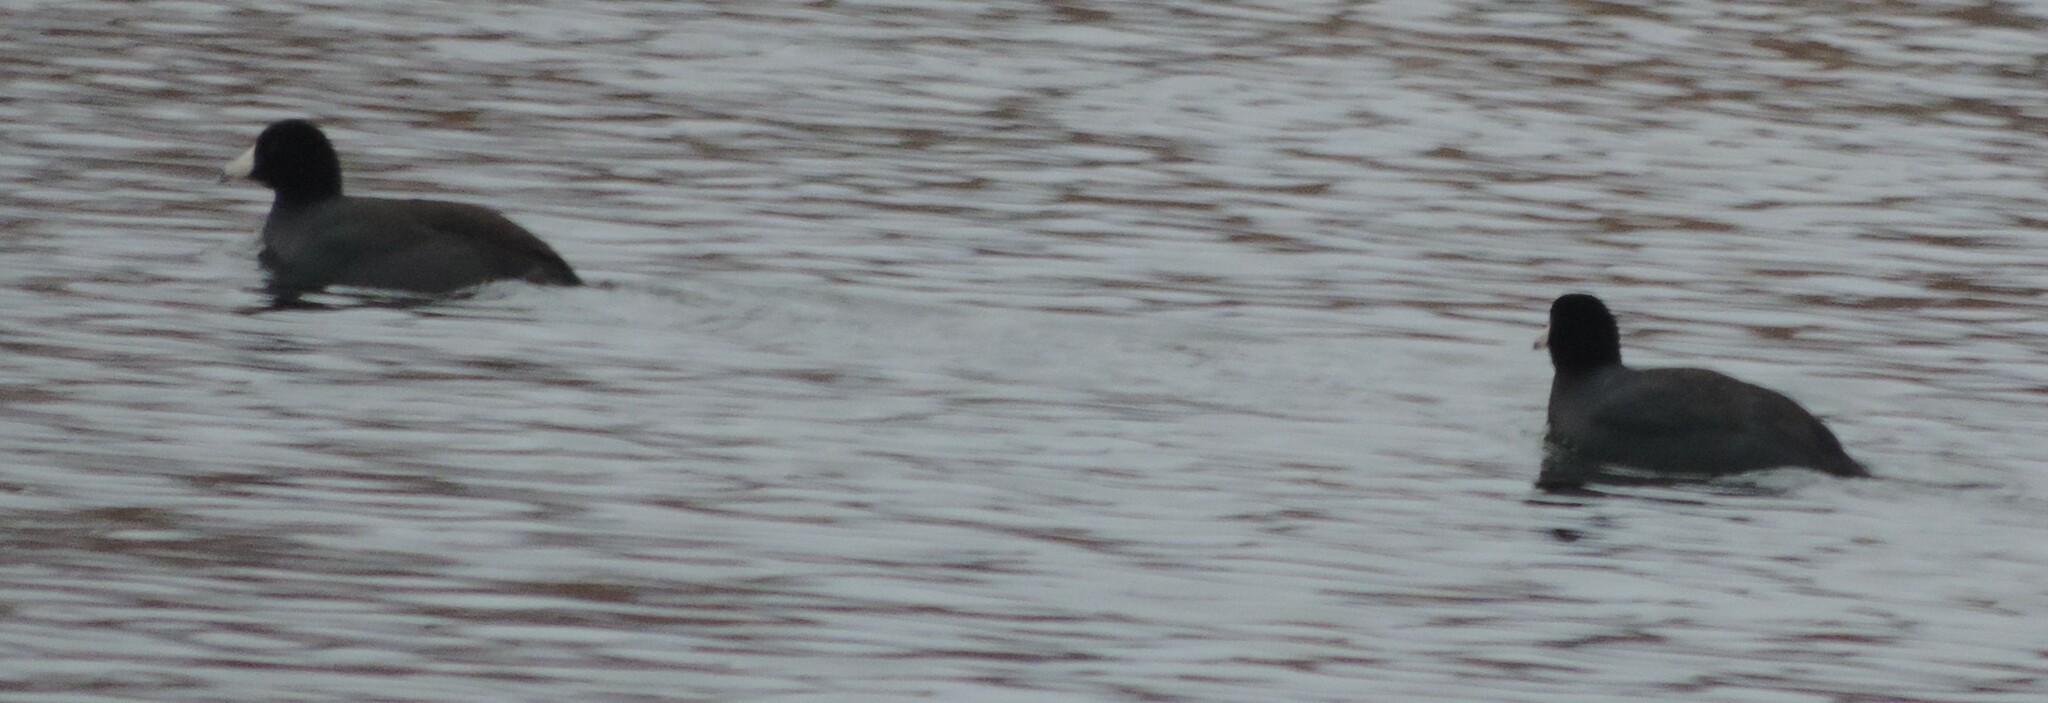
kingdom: Animalia
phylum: Chordata
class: Aves
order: Gruiformes
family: Rallidae
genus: Fulica
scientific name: Fulica americana
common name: American coot
